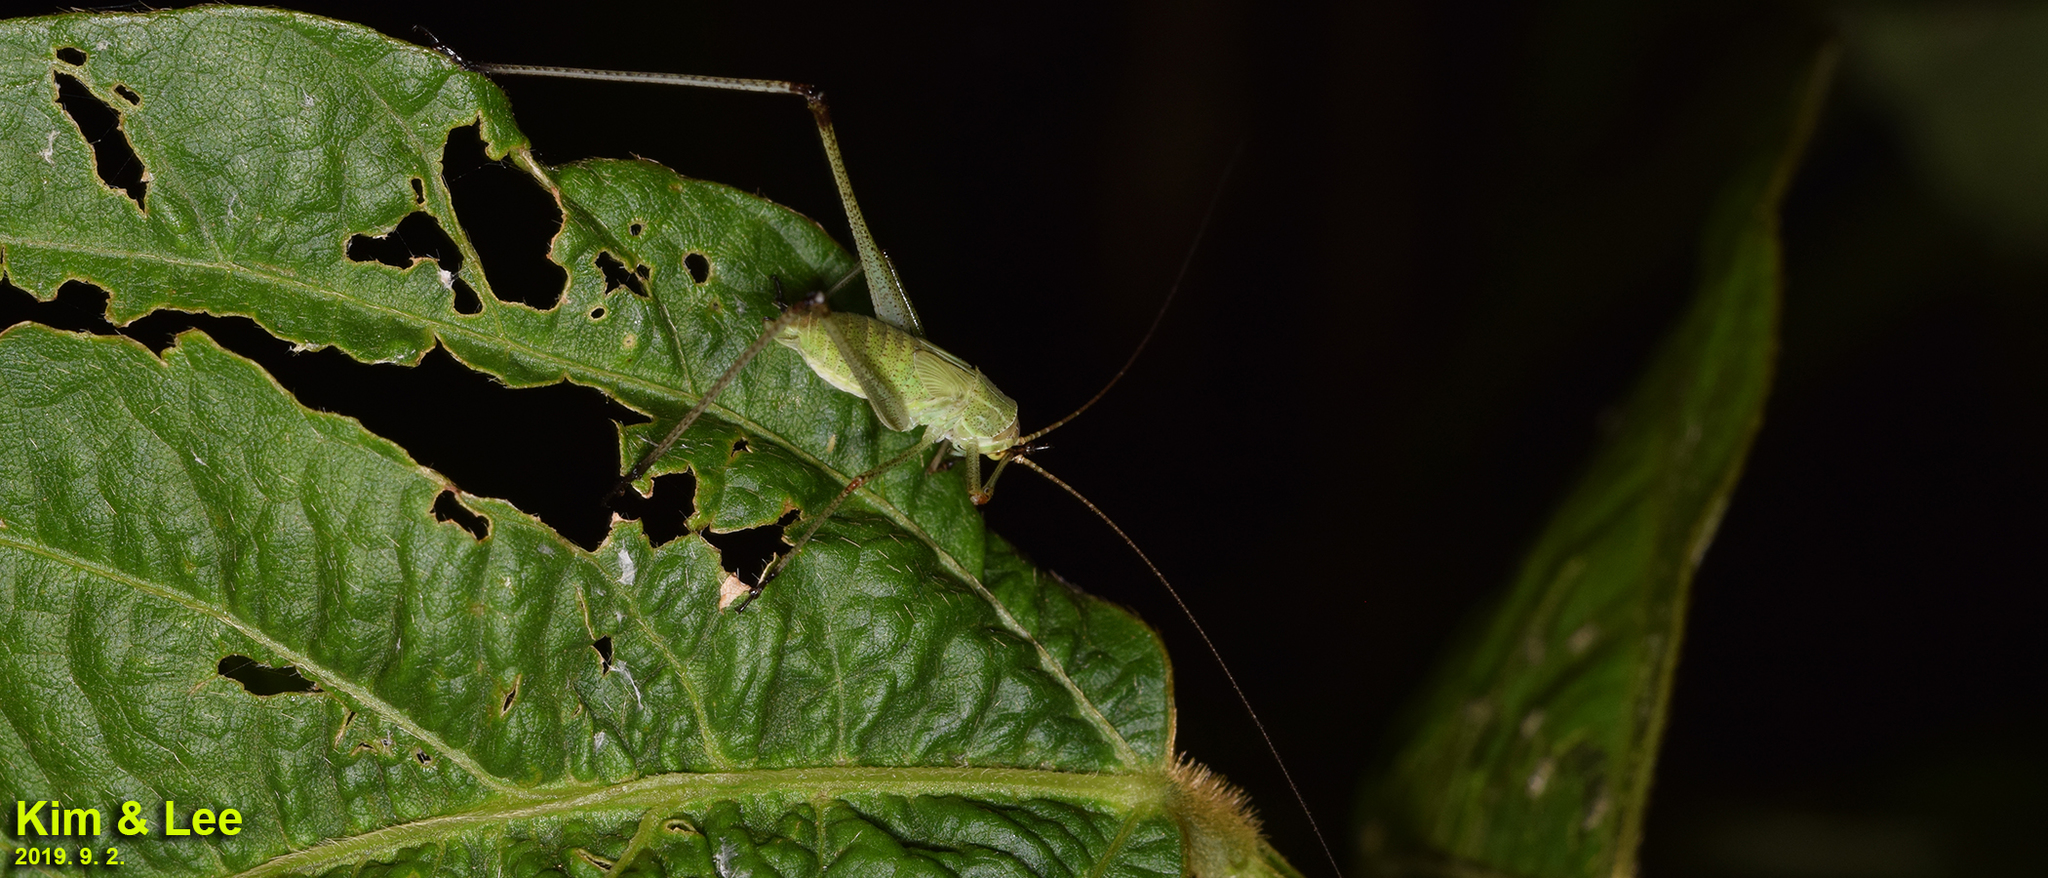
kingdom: Animalia
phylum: Arthropoda
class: Insecta
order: Orthoptera
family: Tettigoniidae
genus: Phaneroptera
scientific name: Phaneroptera falcata
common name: Sickle-bearing bush-cricket
